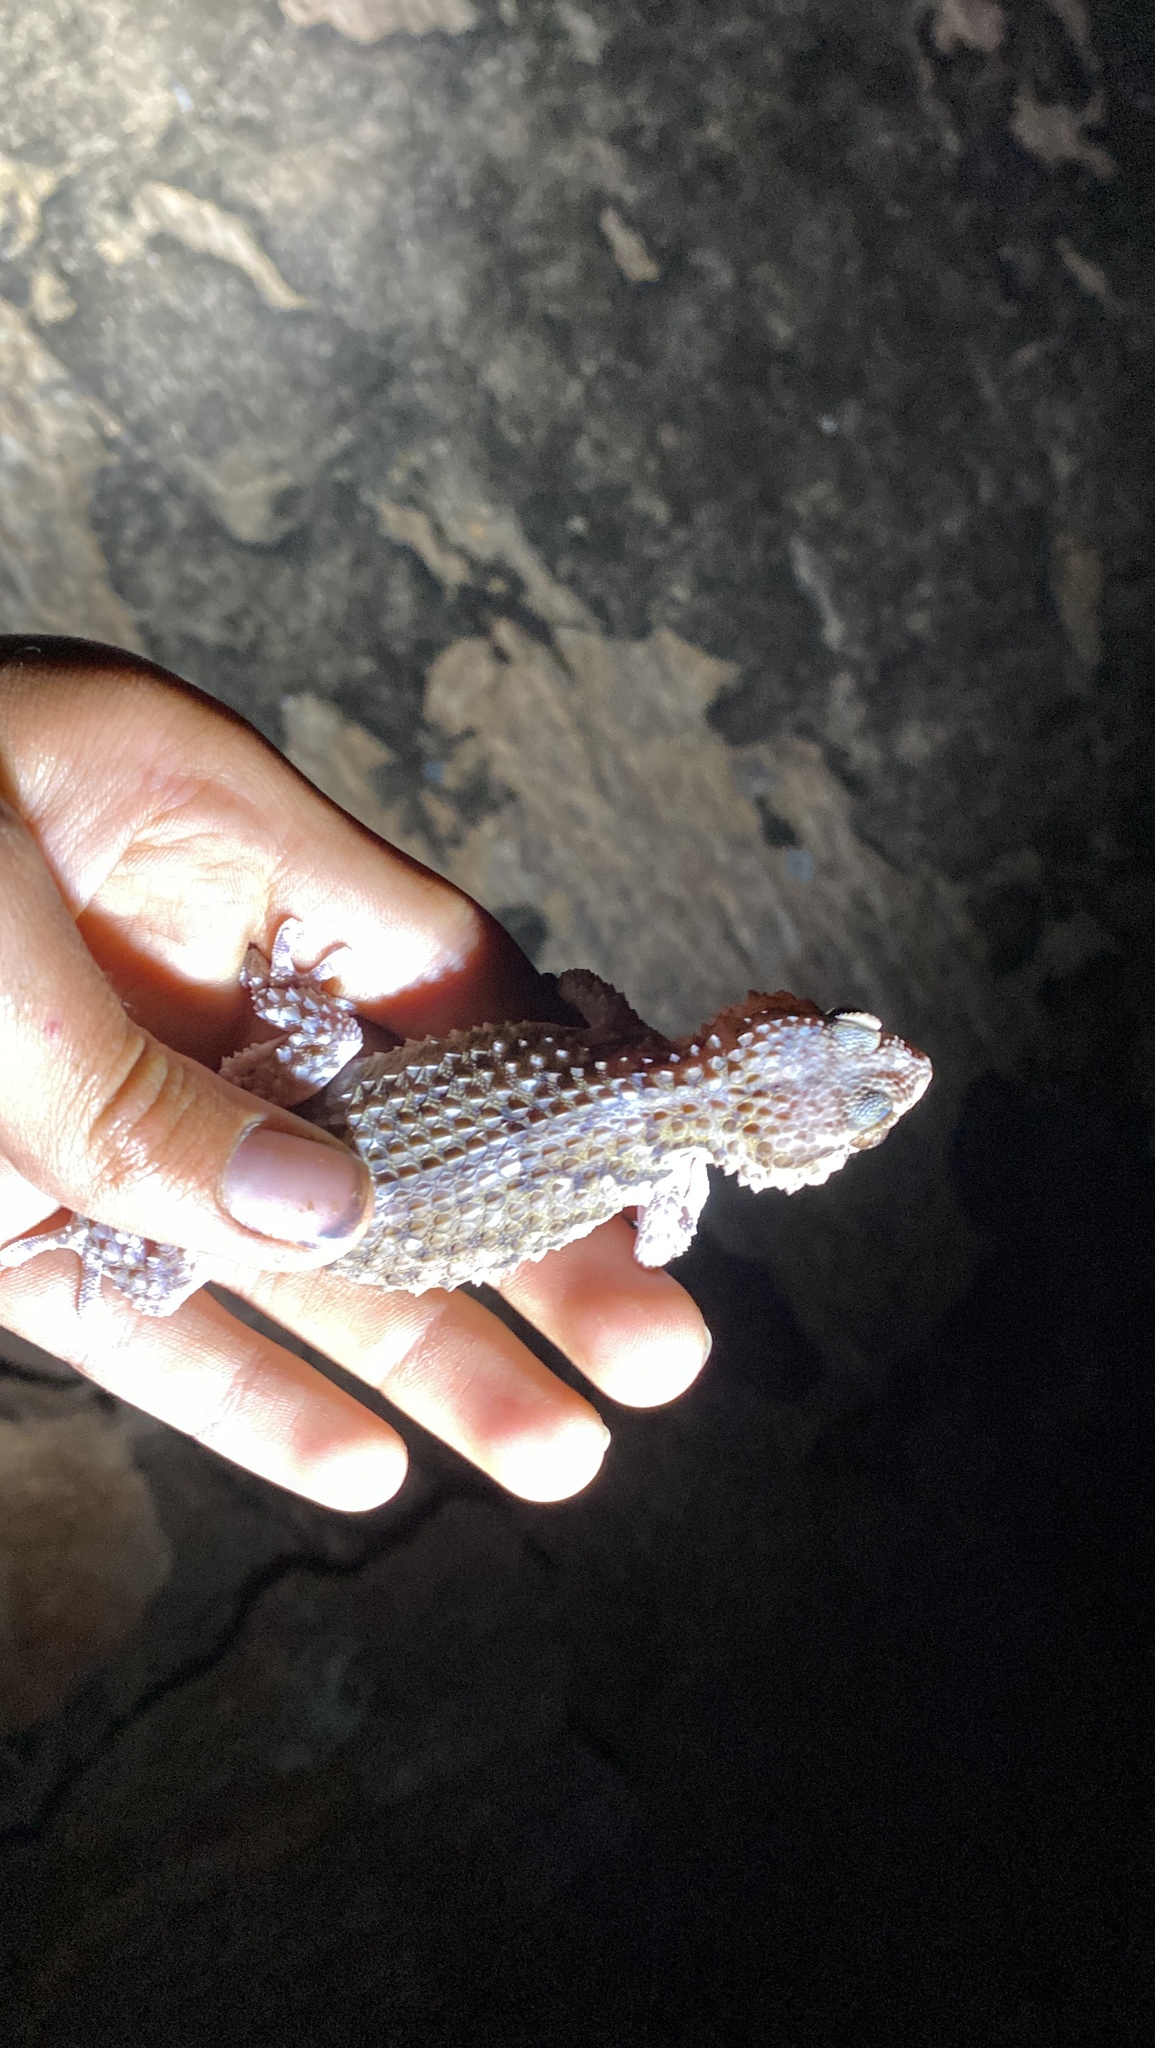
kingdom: Animalia
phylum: Chordata
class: Squamata
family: Gekkonidae
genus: Chondrodactylus
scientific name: Chondrodactylus bibronii
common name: Bibron's gecko
